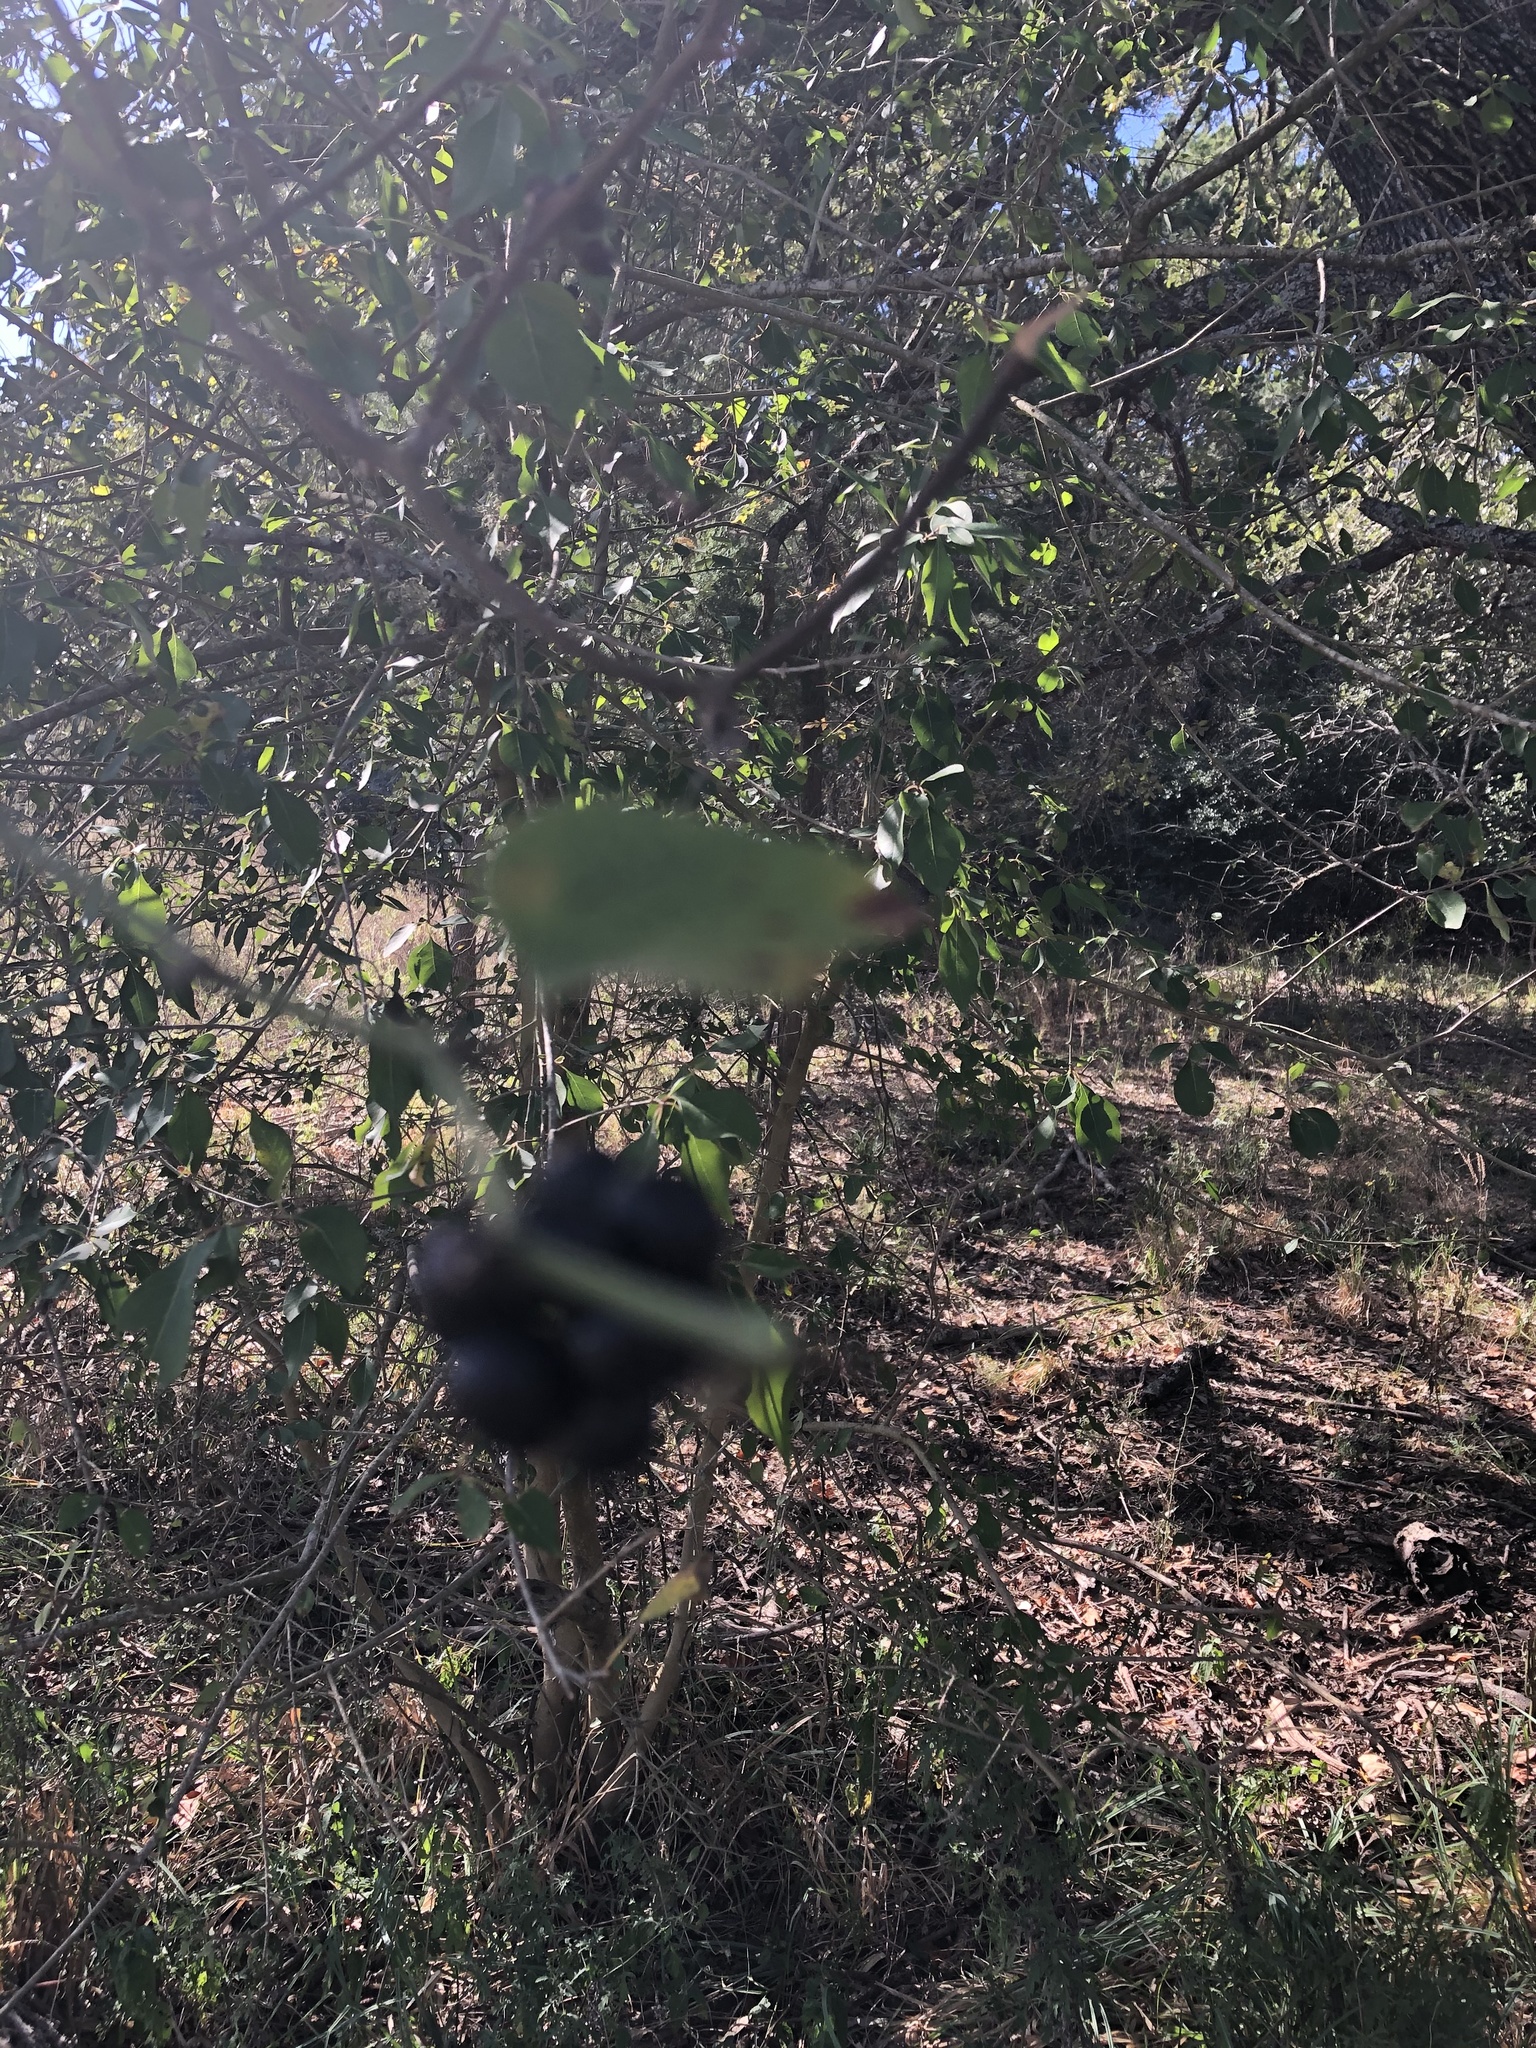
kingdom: Plantae
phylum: Tracheophyta
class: Liliopsida
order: Liliales
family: Smilacaceae
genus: Smilax
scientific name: Smilax bona-nox
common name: Catbrier
